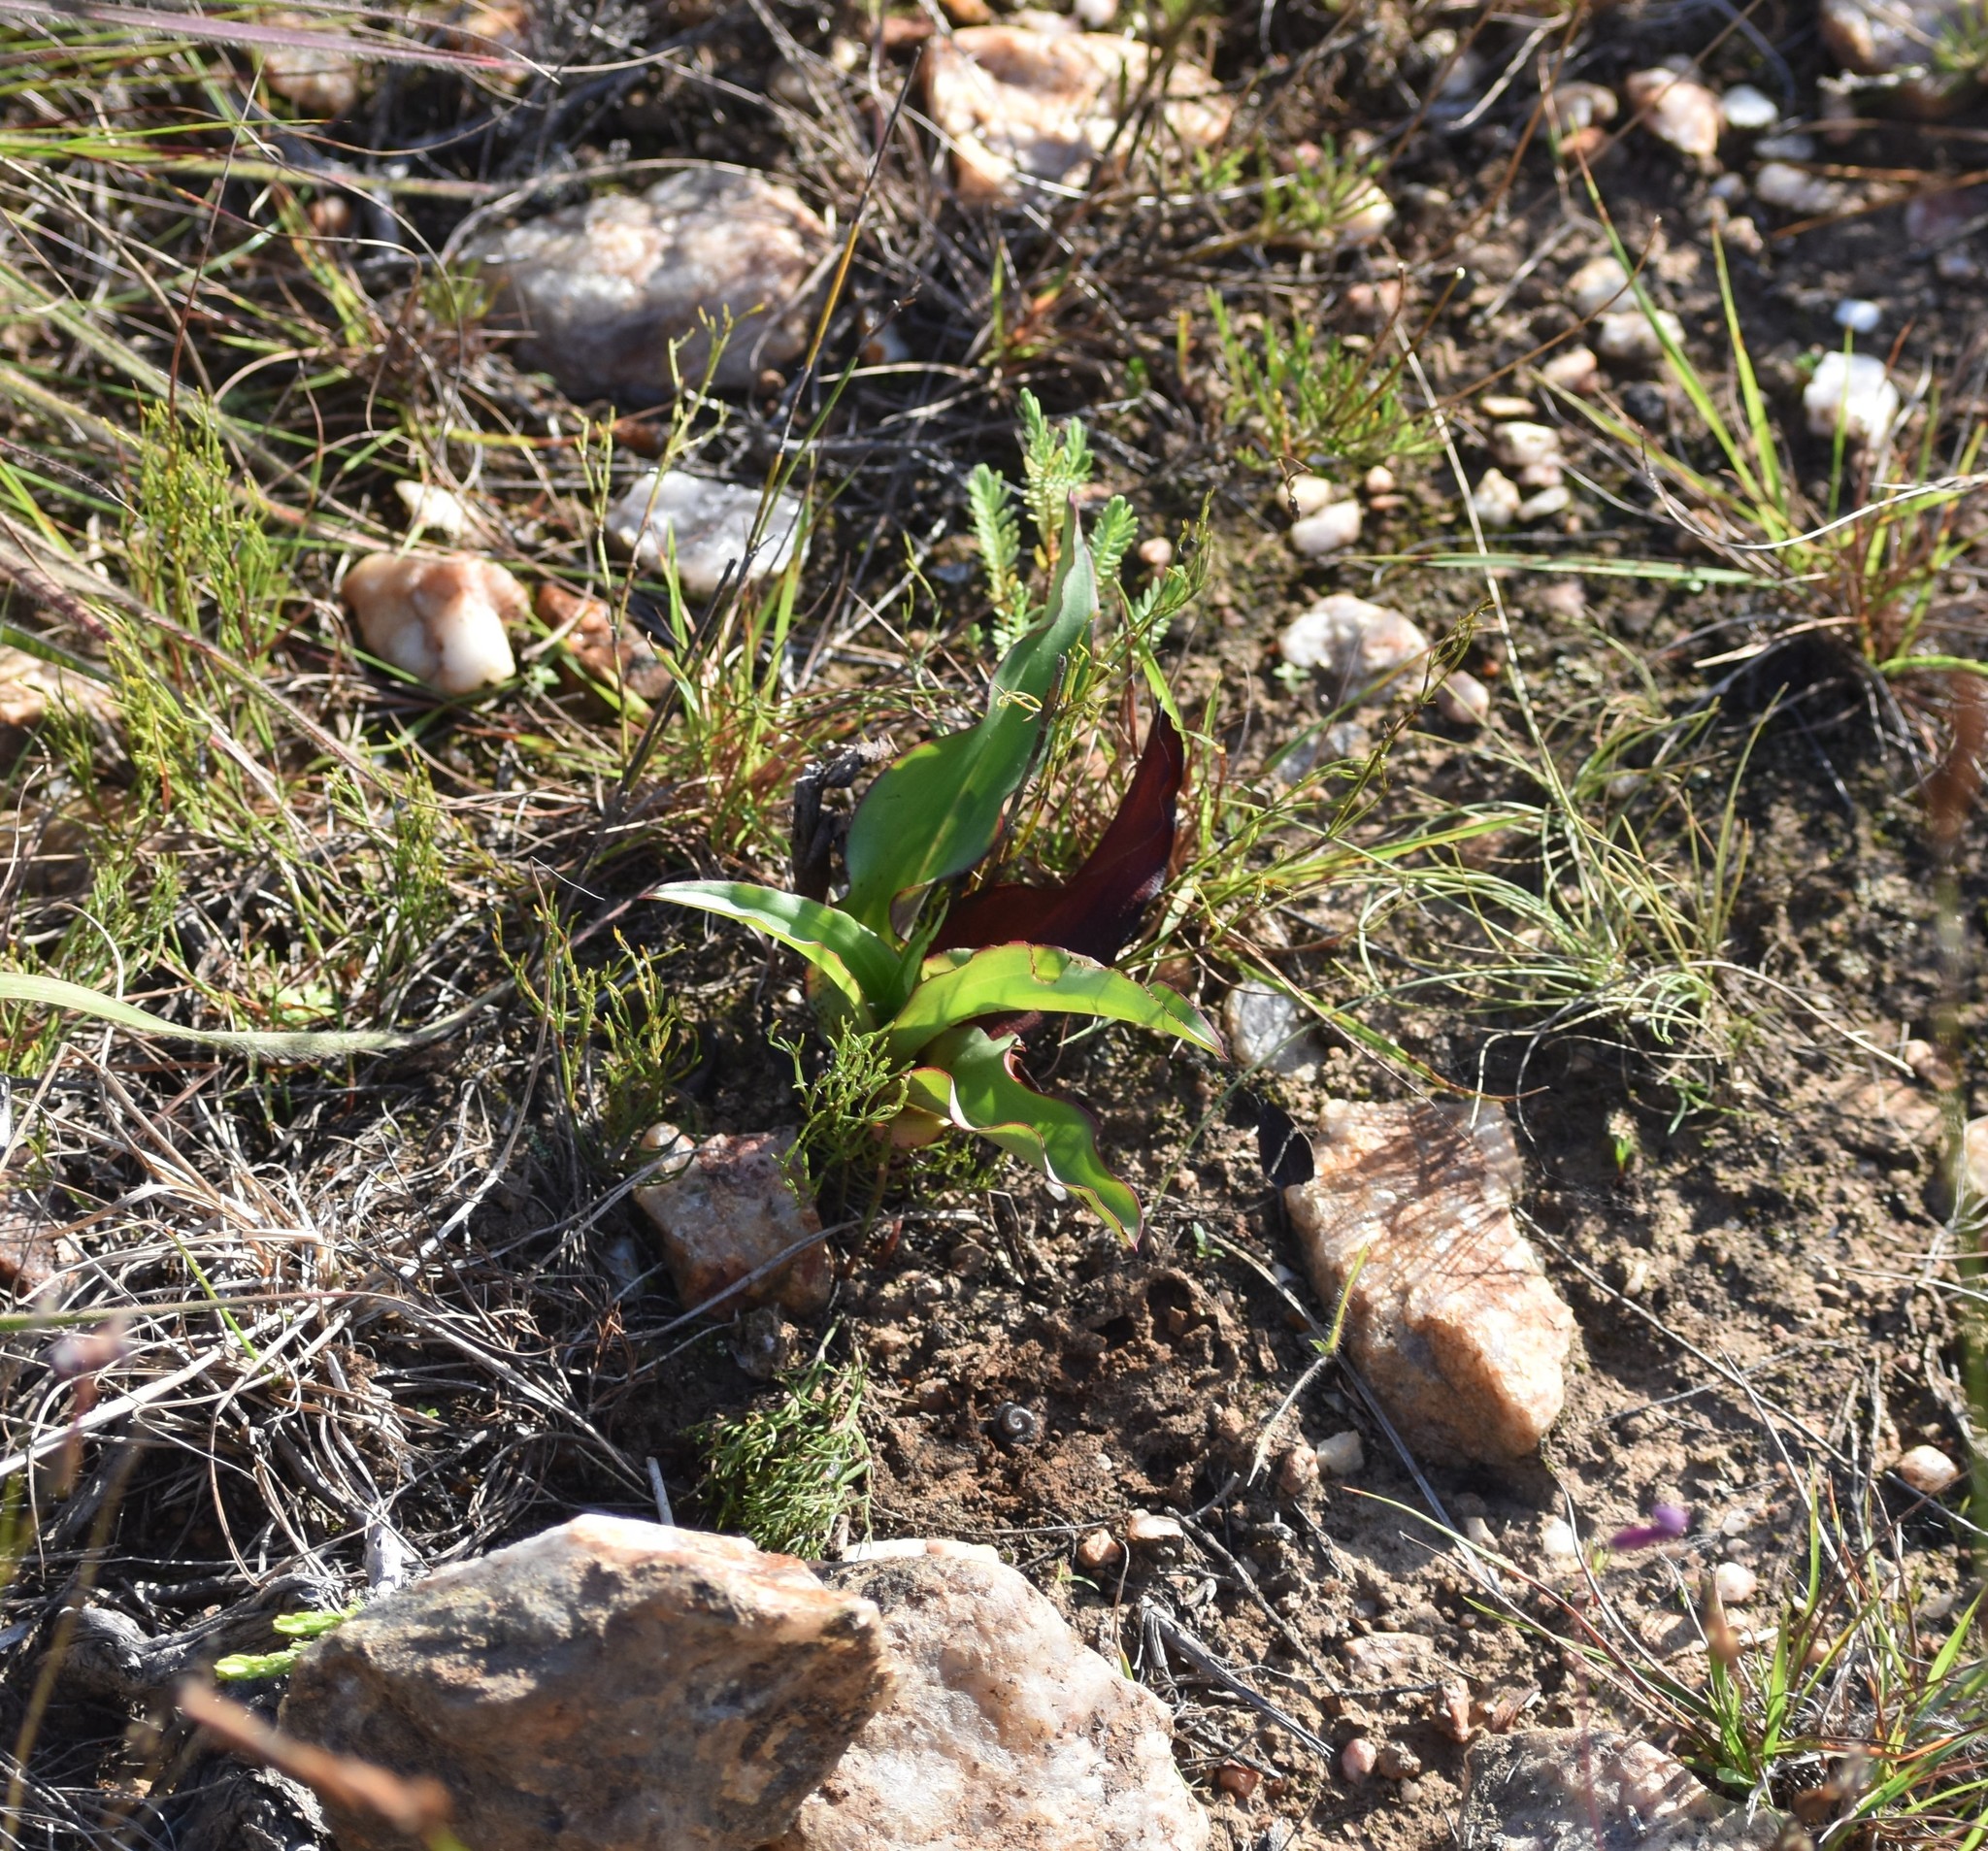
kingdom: Plantae
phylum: Tracheophyta
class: Liliopsida
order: Asparagales
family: Orchidaceae
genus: Disa
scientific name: Disa cornuta
